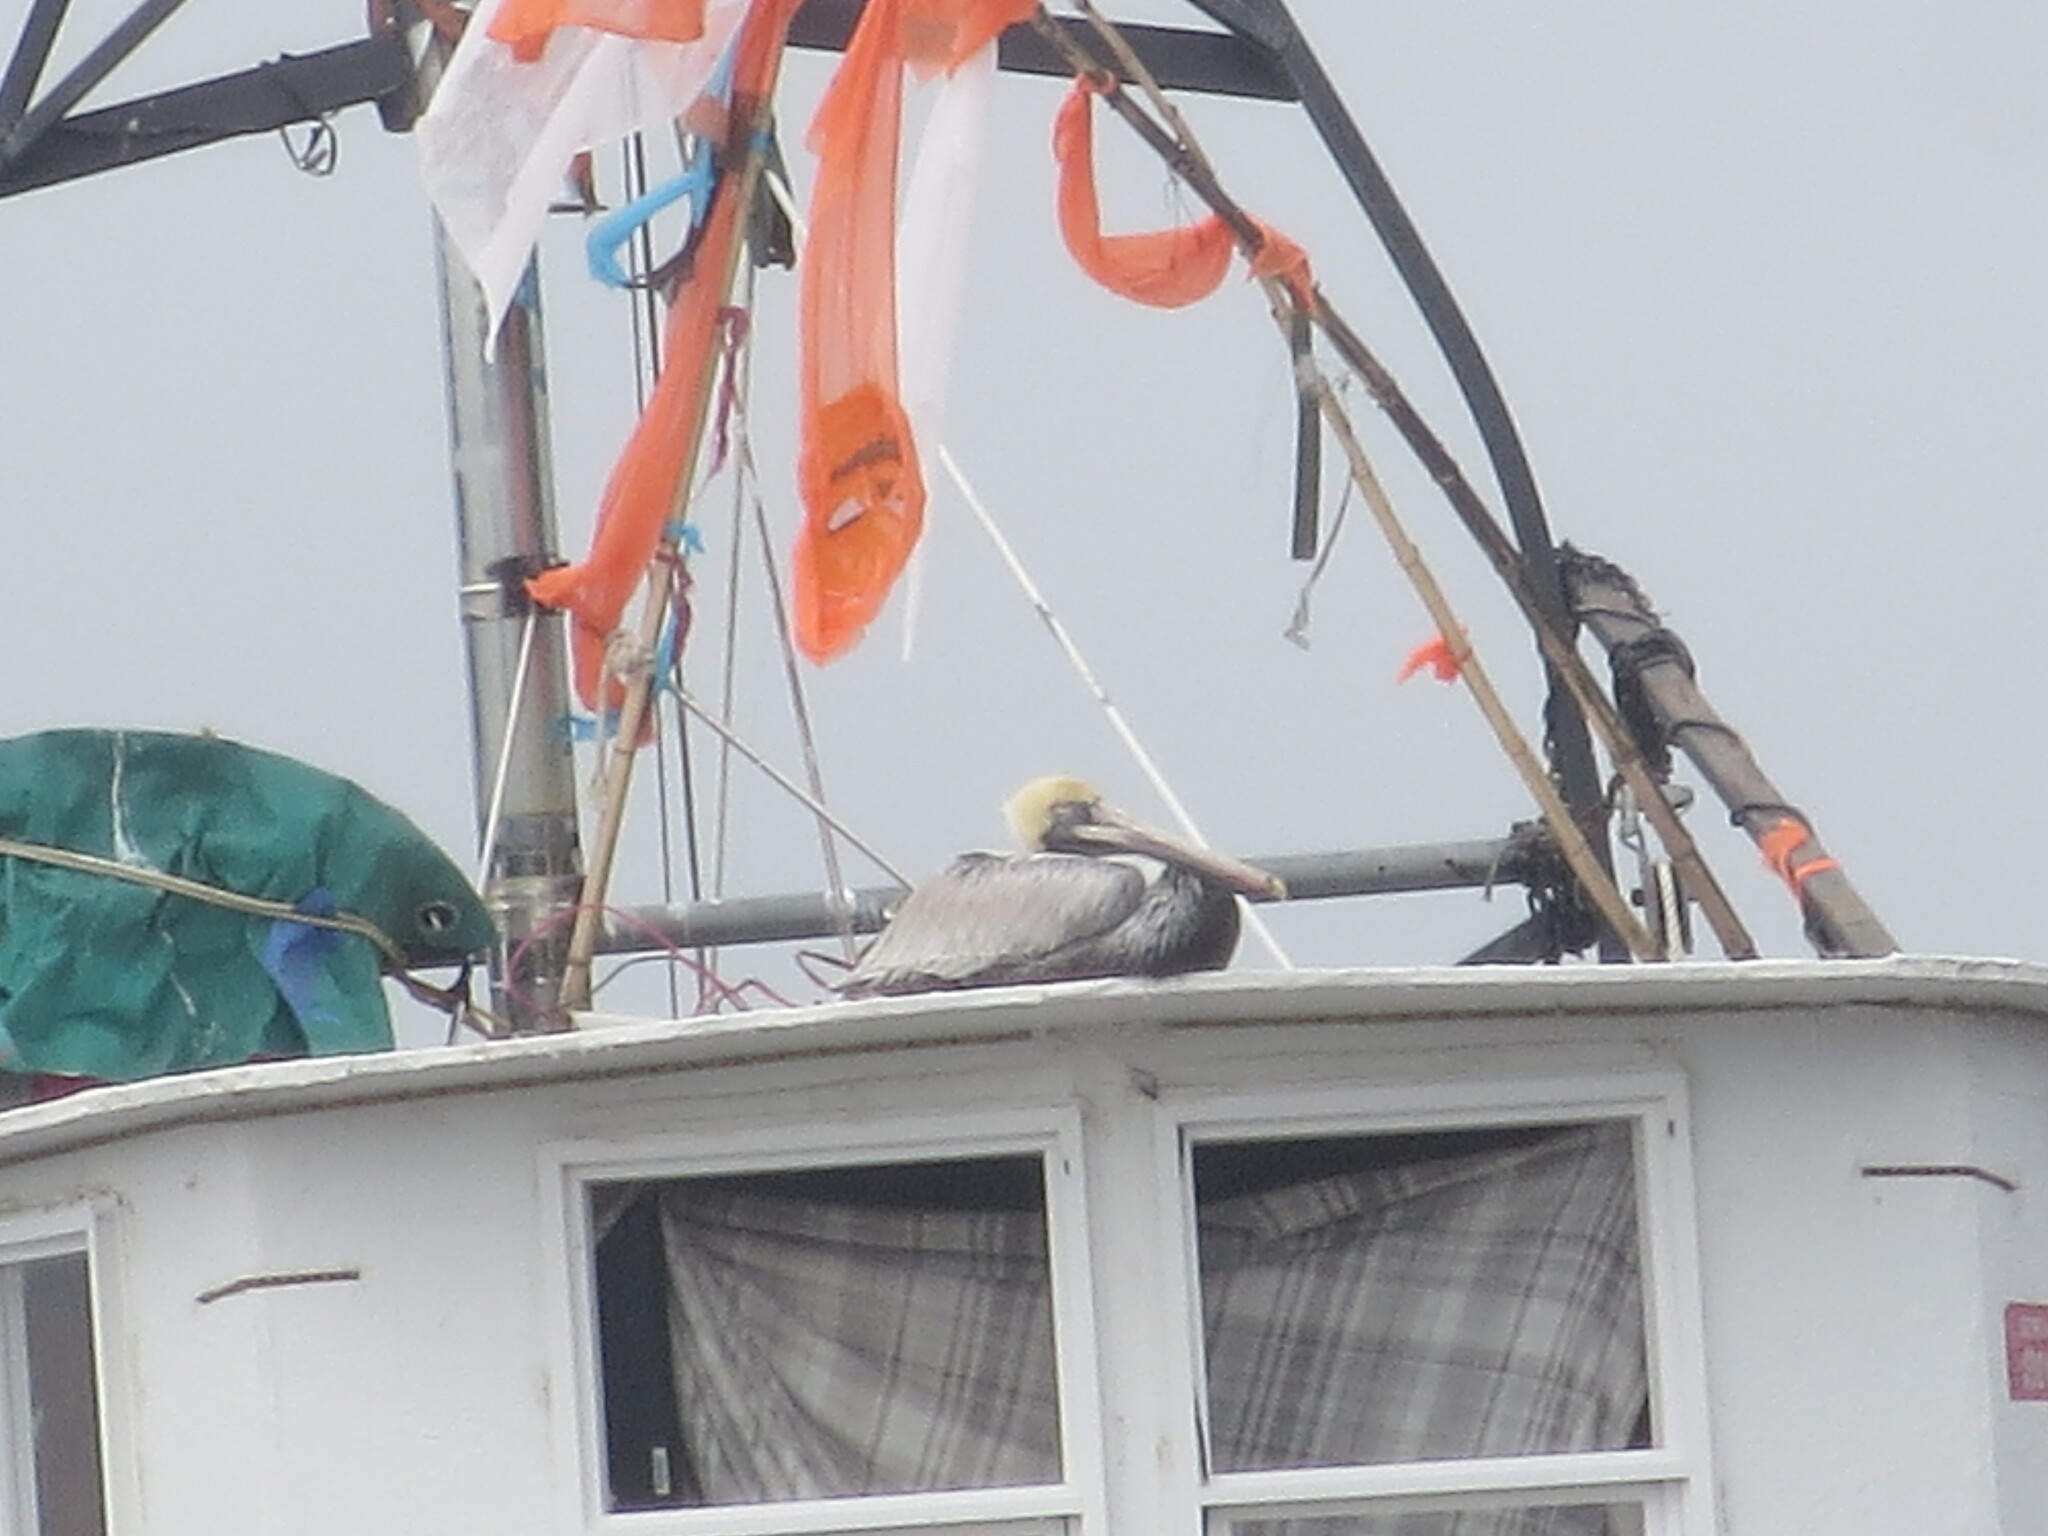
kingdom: Animalia
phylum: Chordata
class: Aves
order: Pelecaniformes
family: Pelecanidae
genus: Pelecanus
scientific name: Pelecanus occidentalis
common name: Brown pelican
